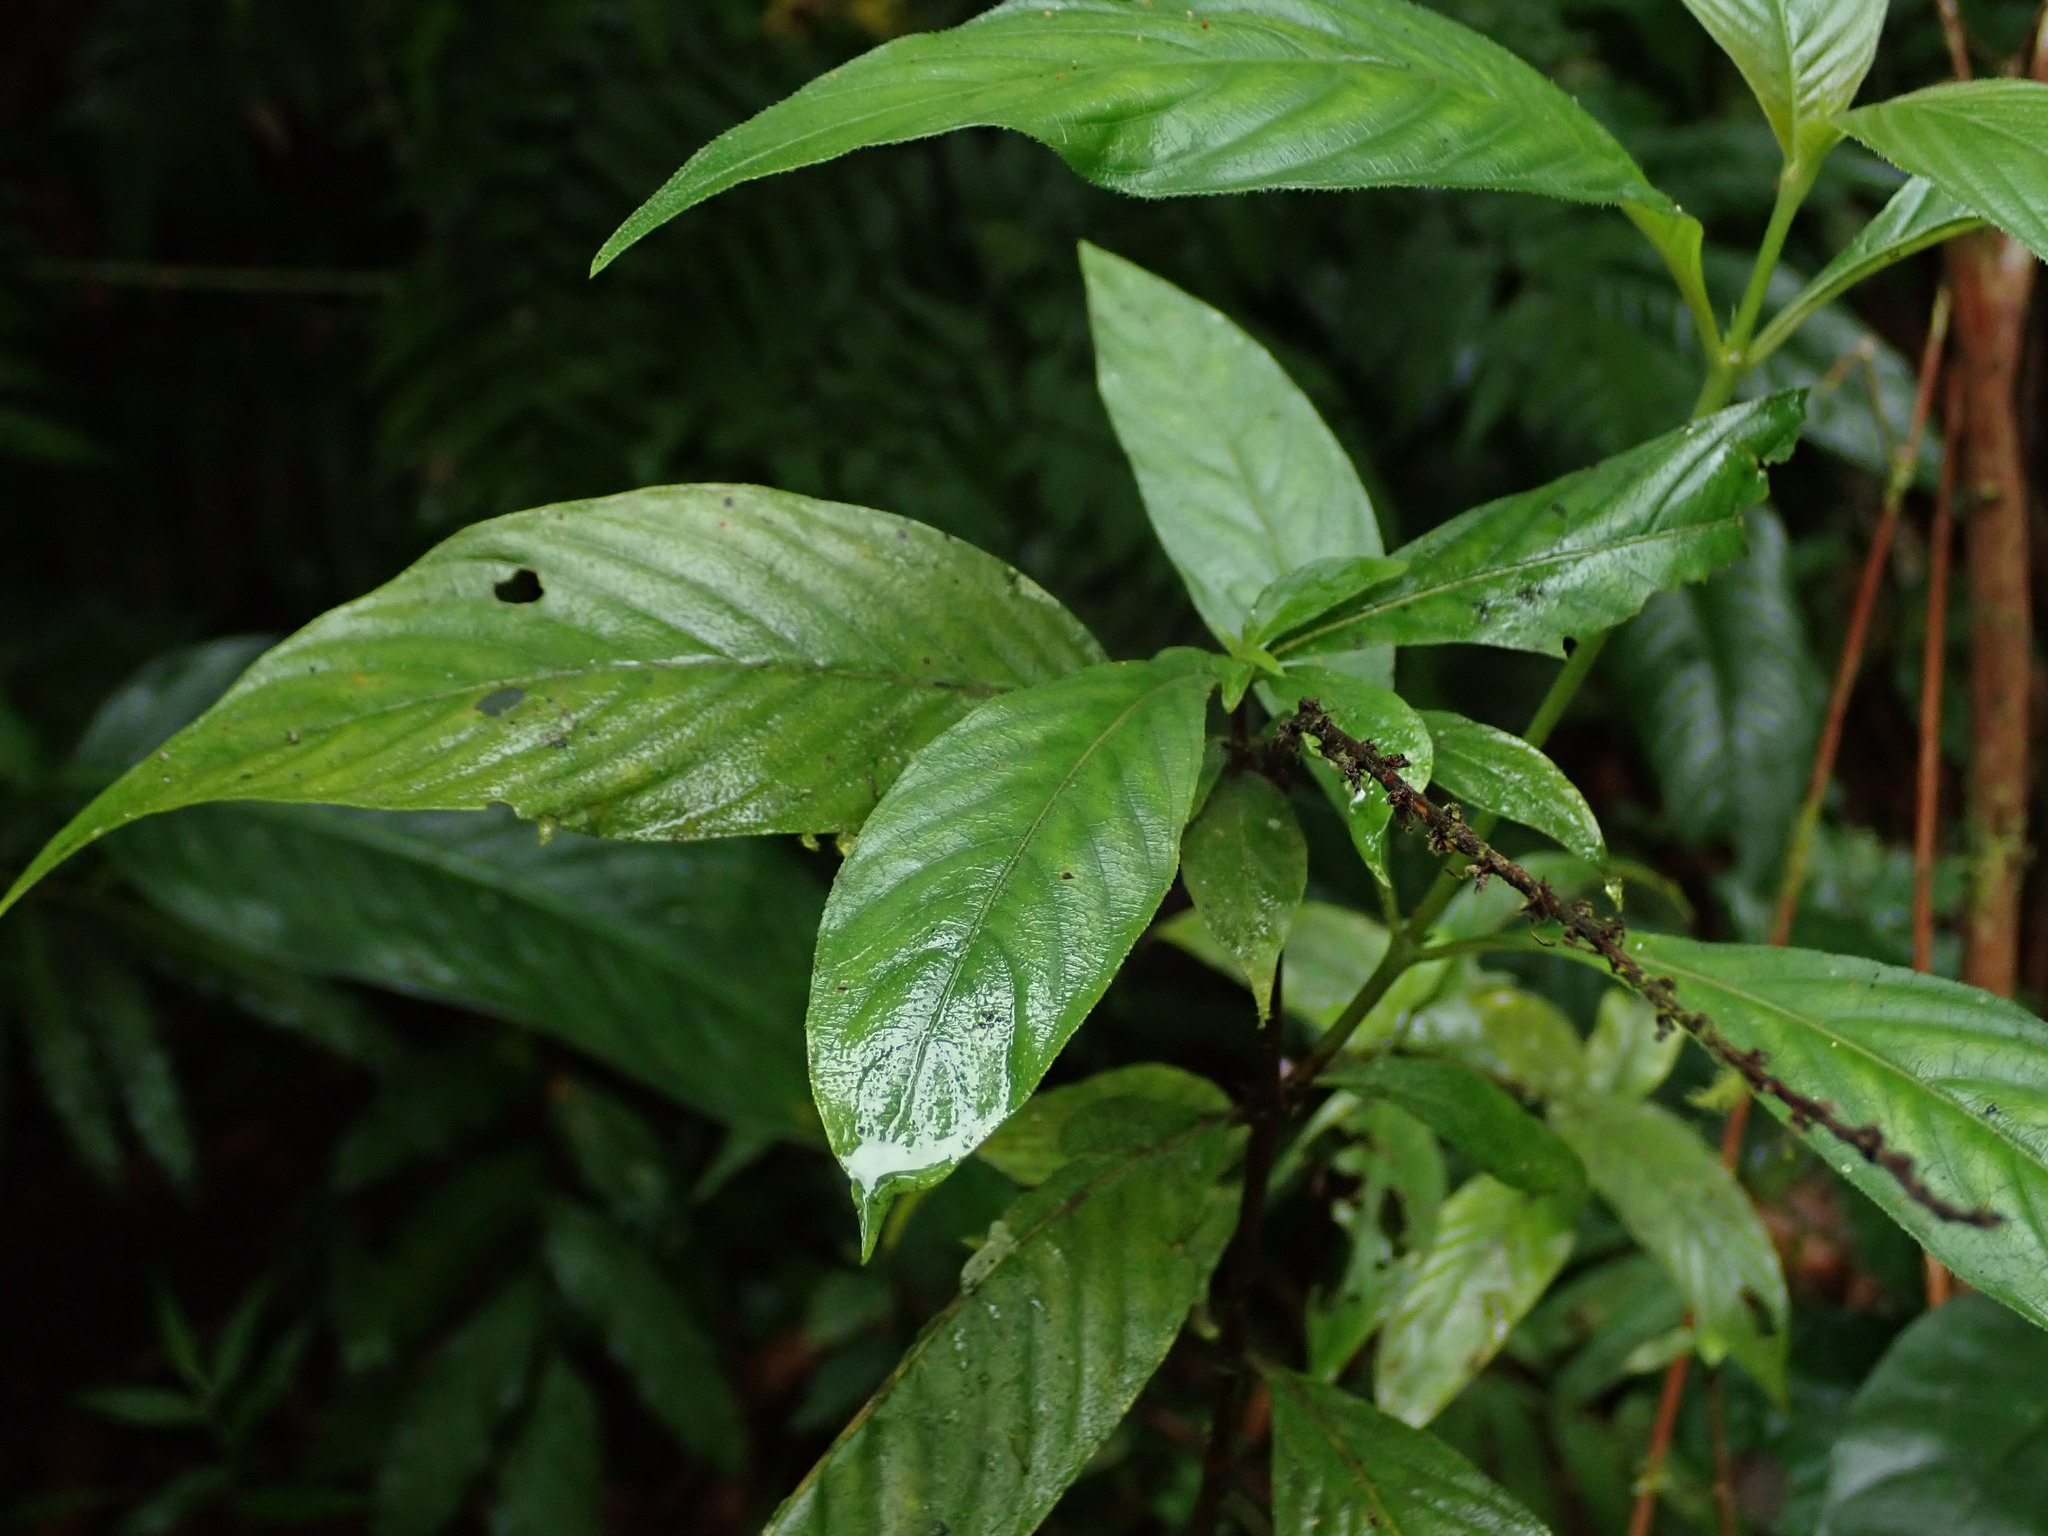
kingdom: Plantae
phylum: Tracheophyta
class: Magnoliopsida
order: Gentianales
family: Rubiaceae
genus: Gonzalagunia
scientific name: Gonzalagunia hirsuta
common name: Mata de mariposa
